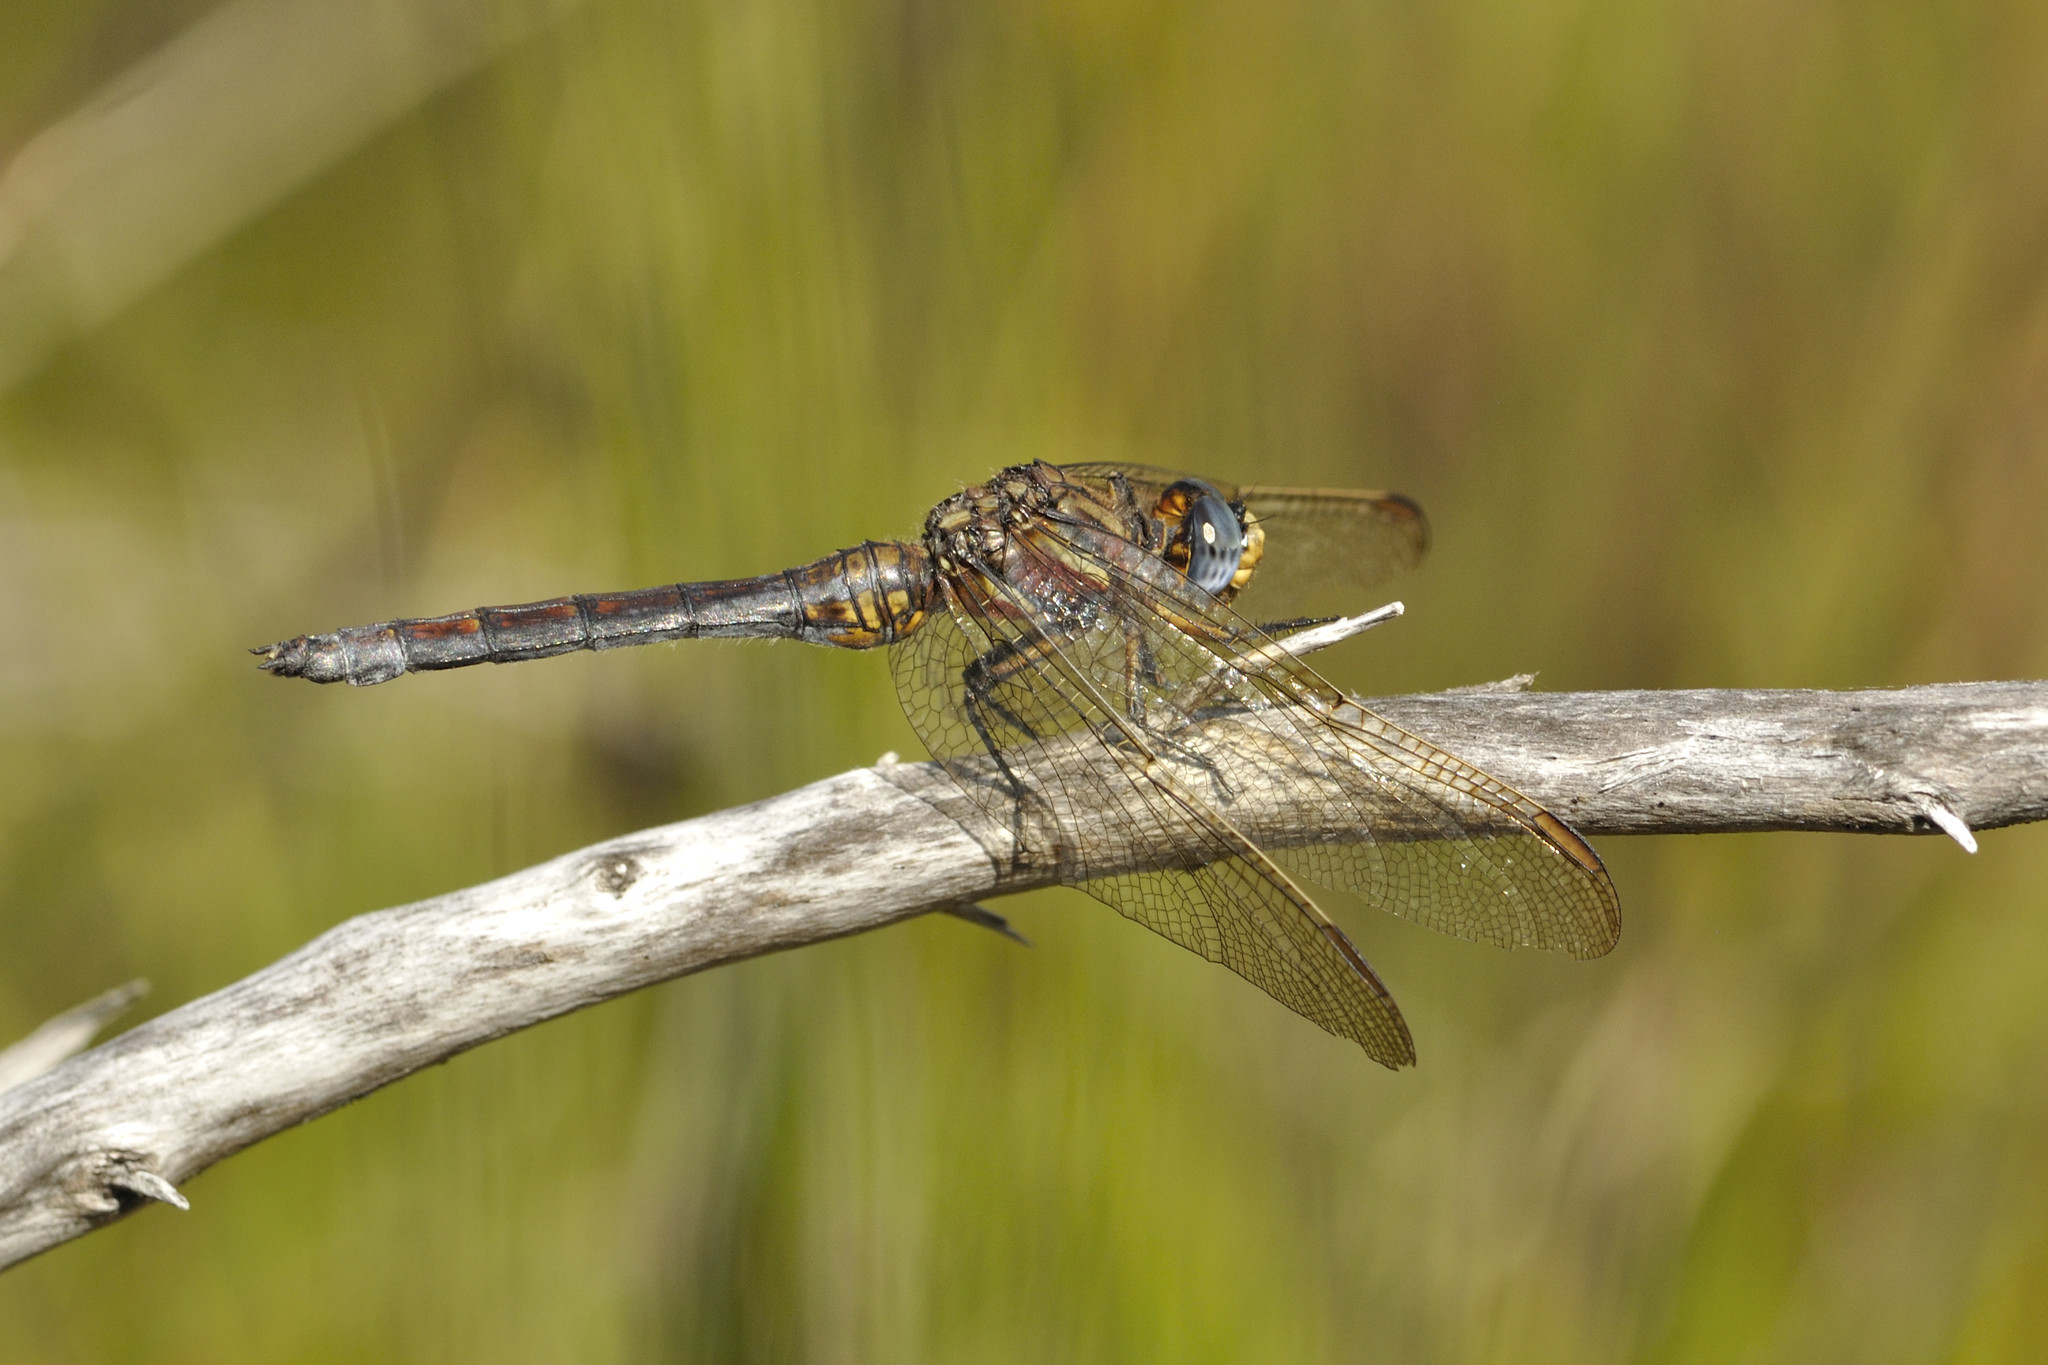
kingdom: Animalia
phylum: Arthropoda
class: Insecta
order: Odonata
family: Libellulidae
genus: Orthetrum
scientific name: Orthetrum rubens
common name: Elusive skimmer
